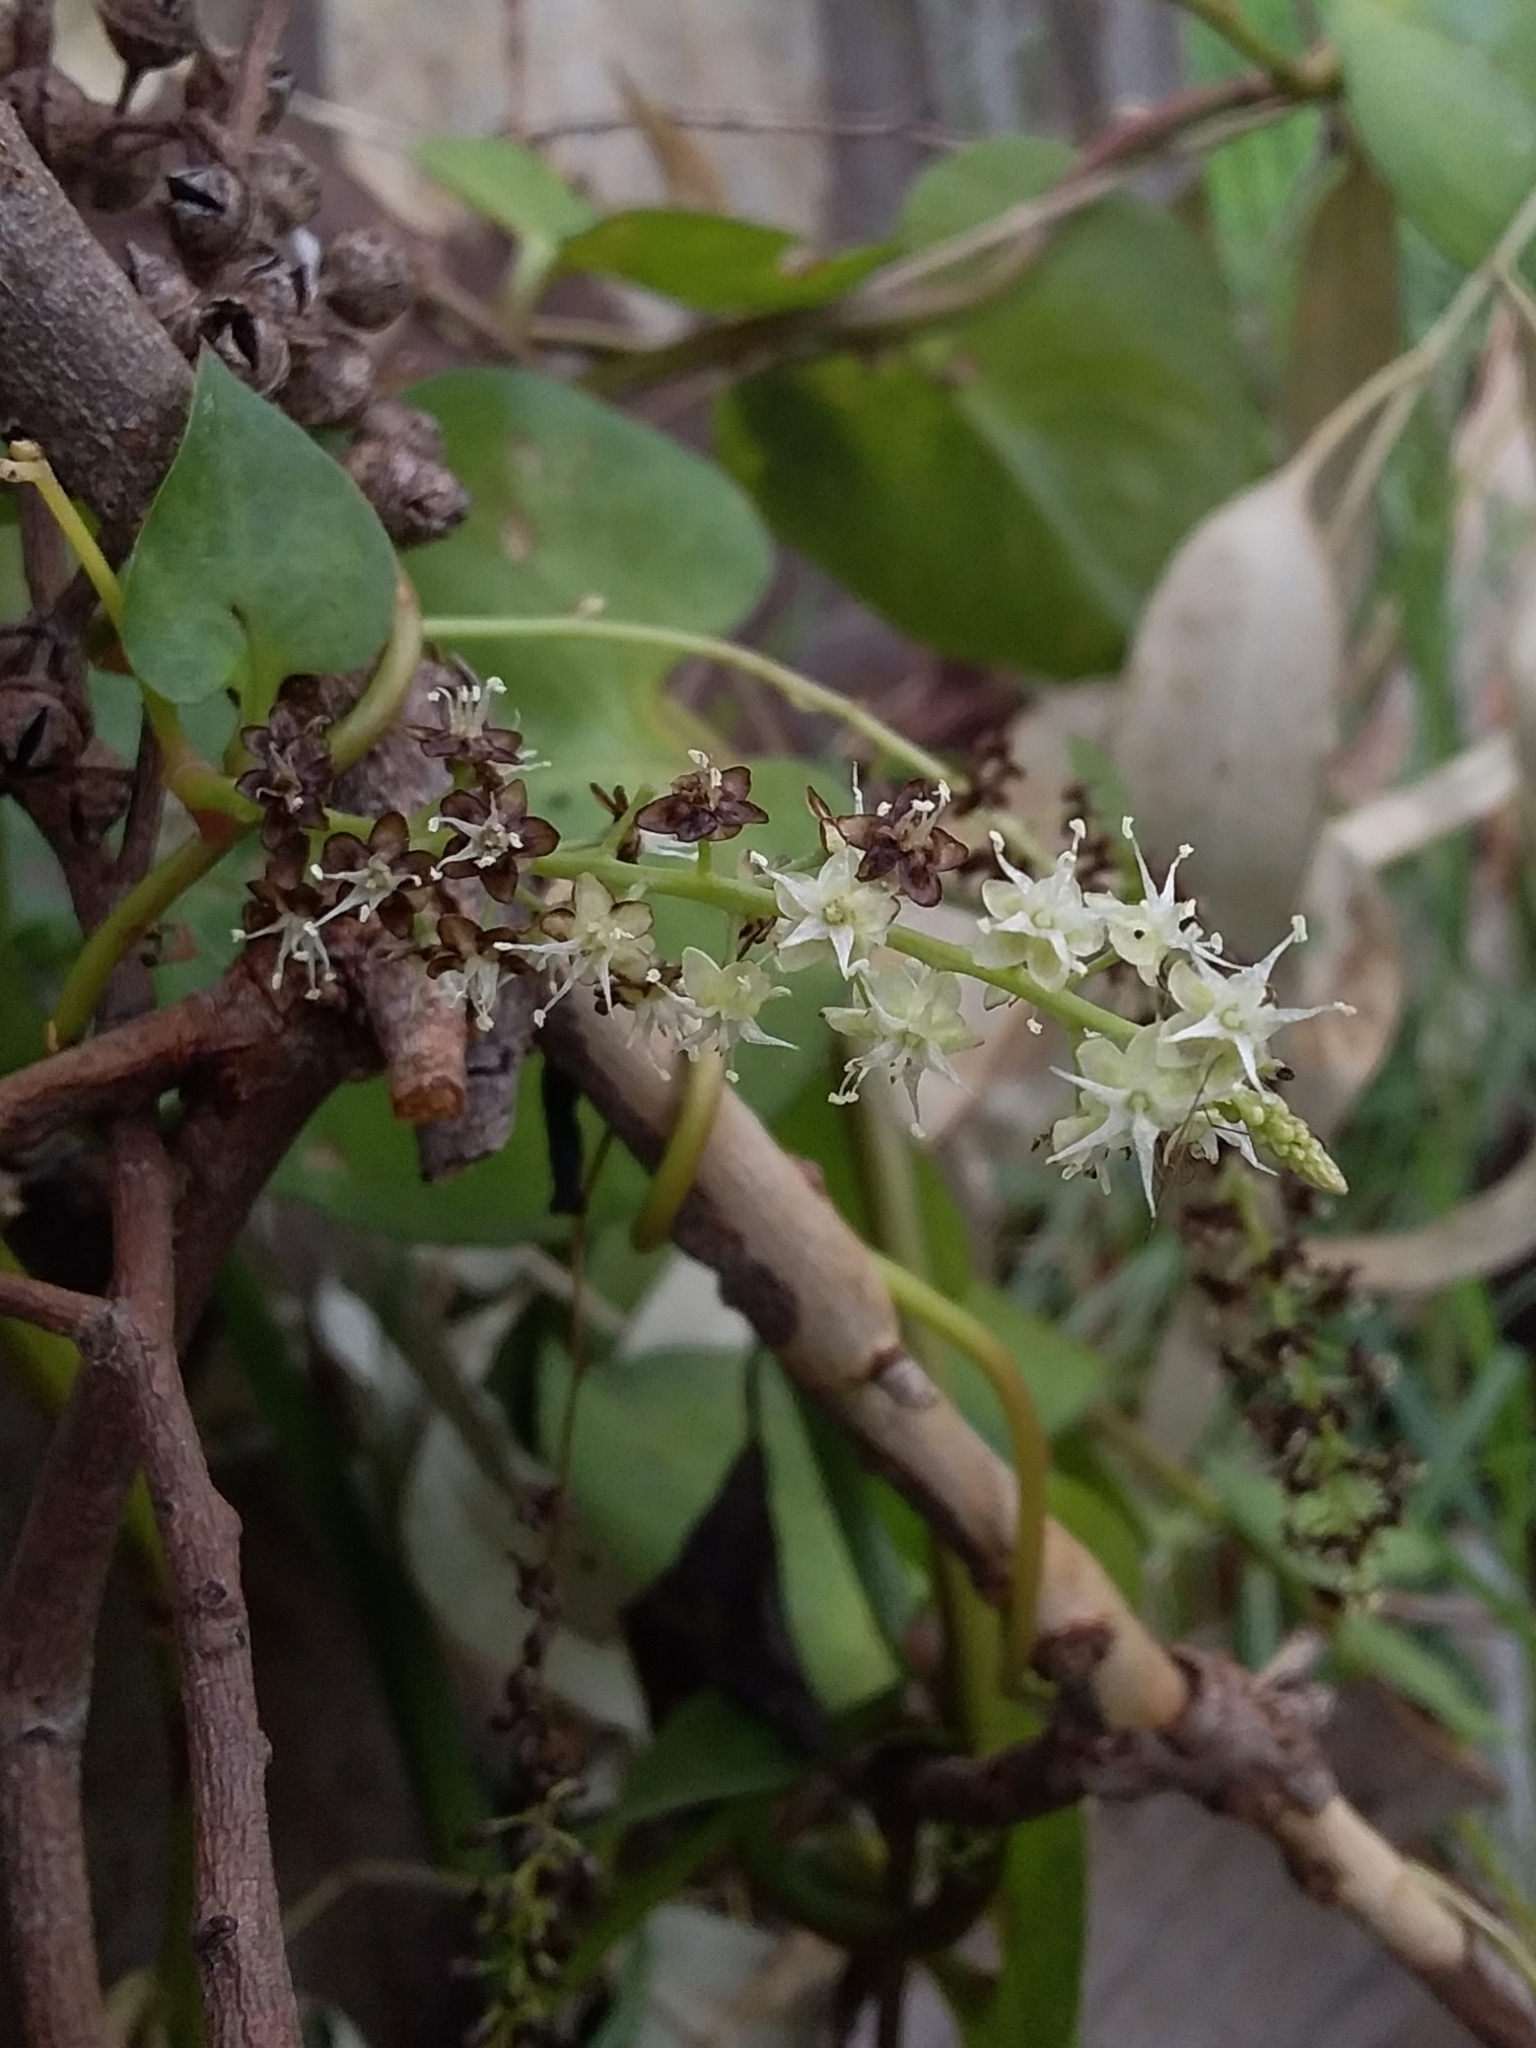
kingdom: Plantae
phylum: Tracheophyta
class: Magnoliopsida
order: Caryophyllales
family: Basellaceae
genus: Anredera
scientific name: Anredera cordifolia
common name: Heartleaf madeiravine
